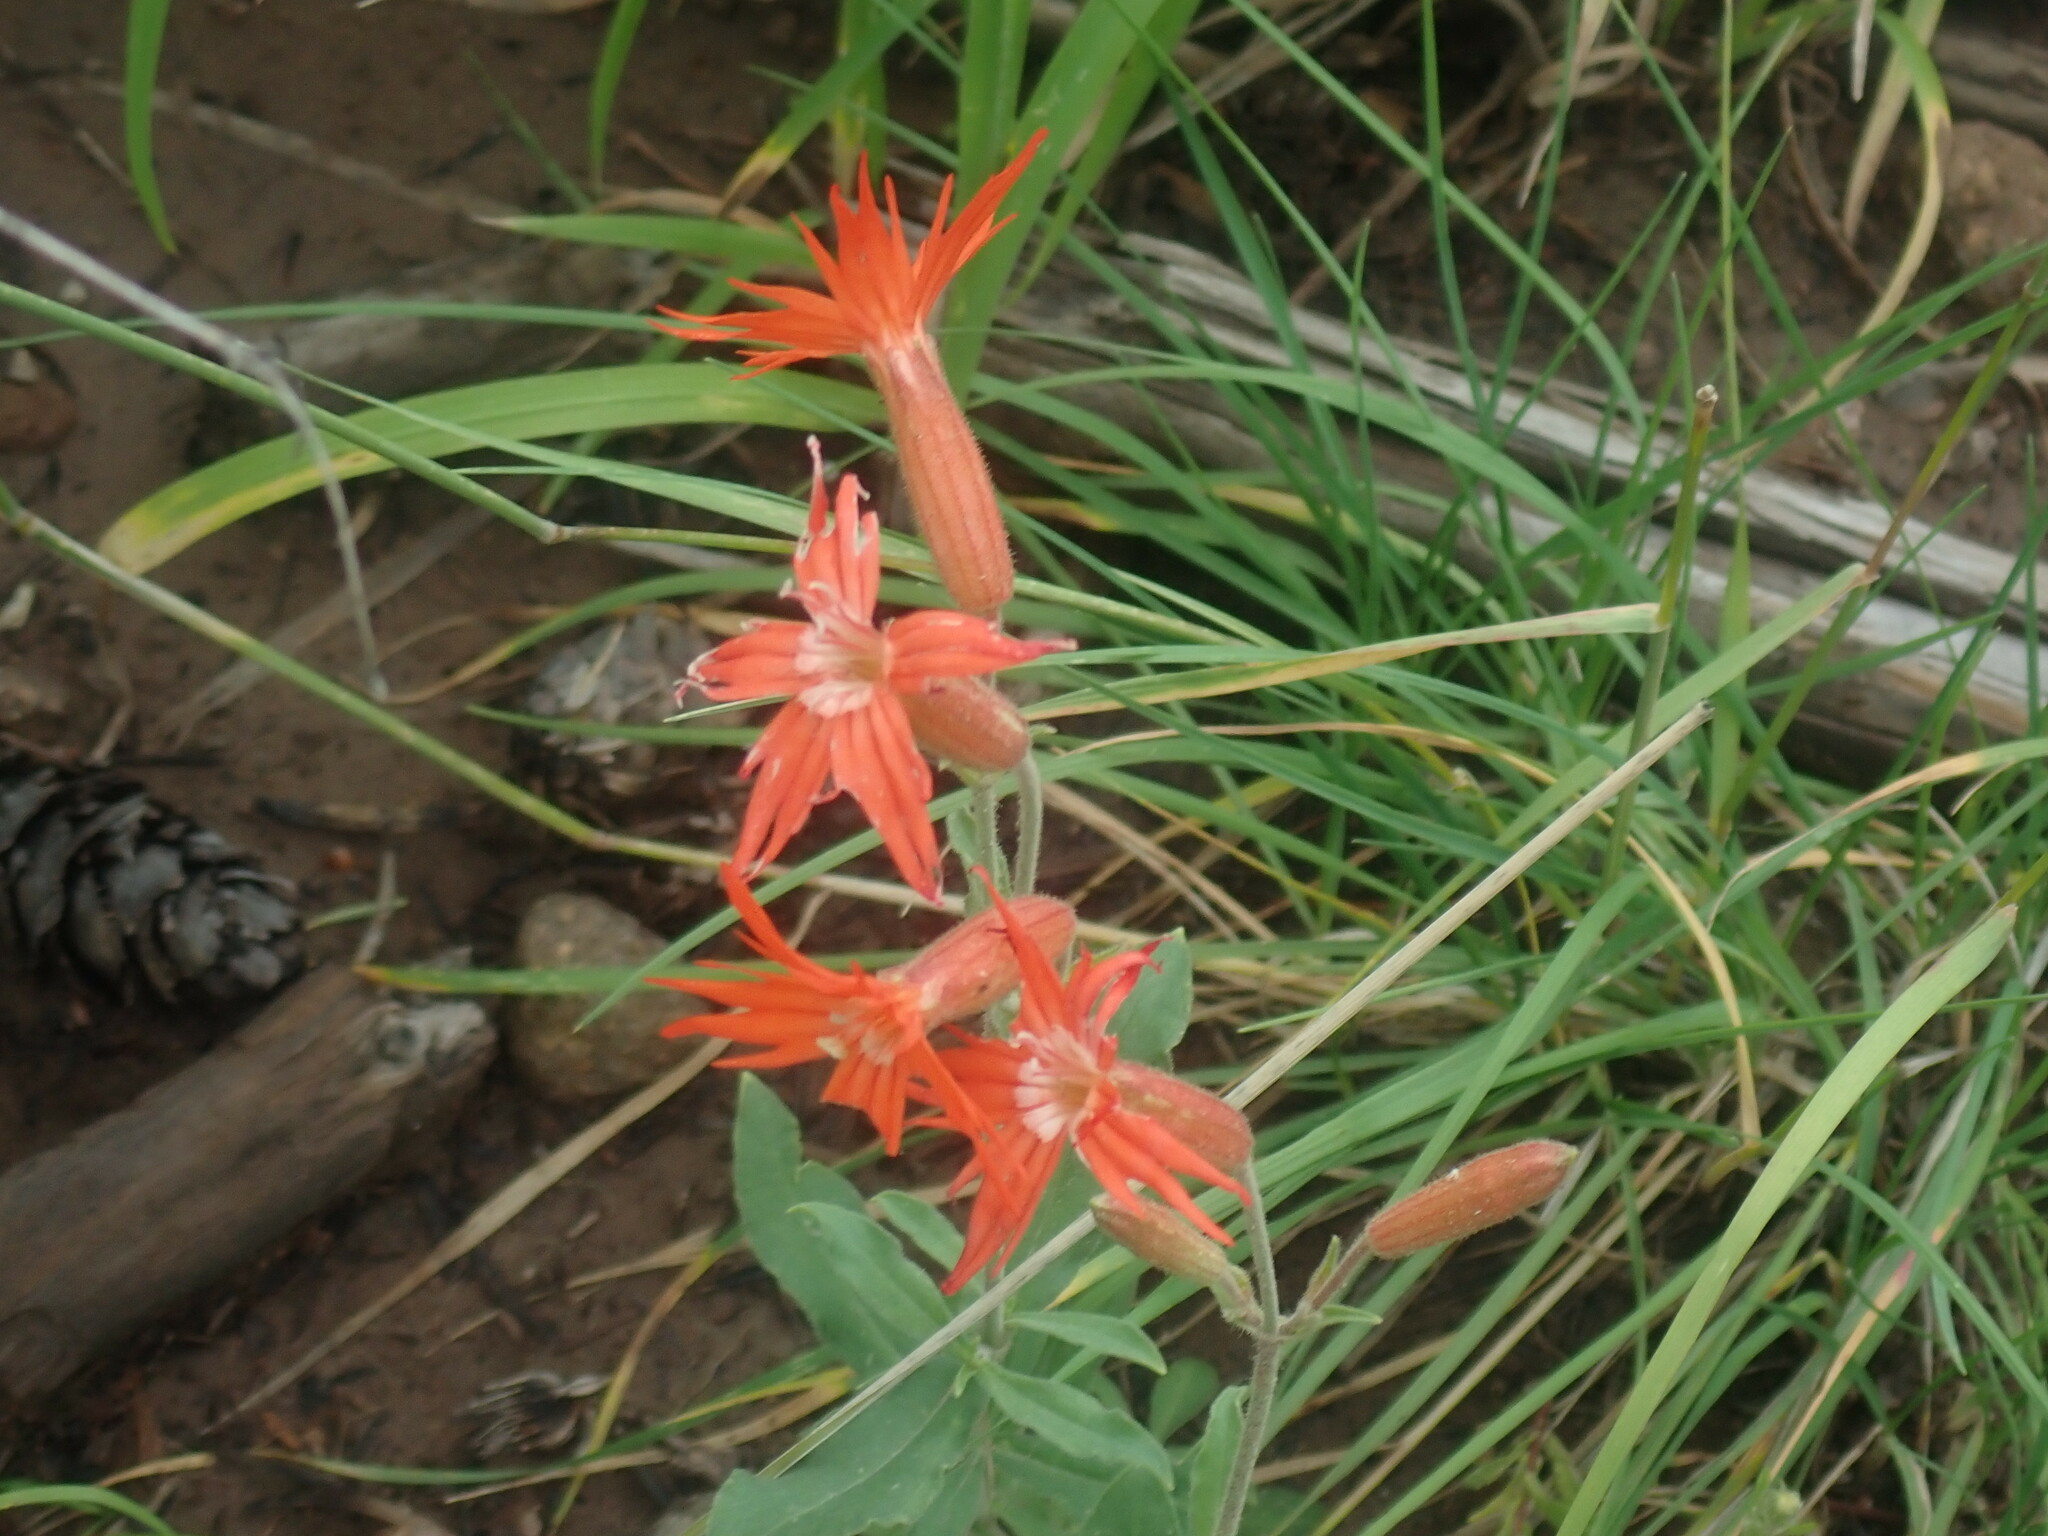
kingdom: Plantae
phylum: Tracheophyta
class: Magnoliopsida
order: Caryophyllales
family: Caryophyllaceae
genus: Silene
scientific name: Silene laciniata
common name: Indian-pink
